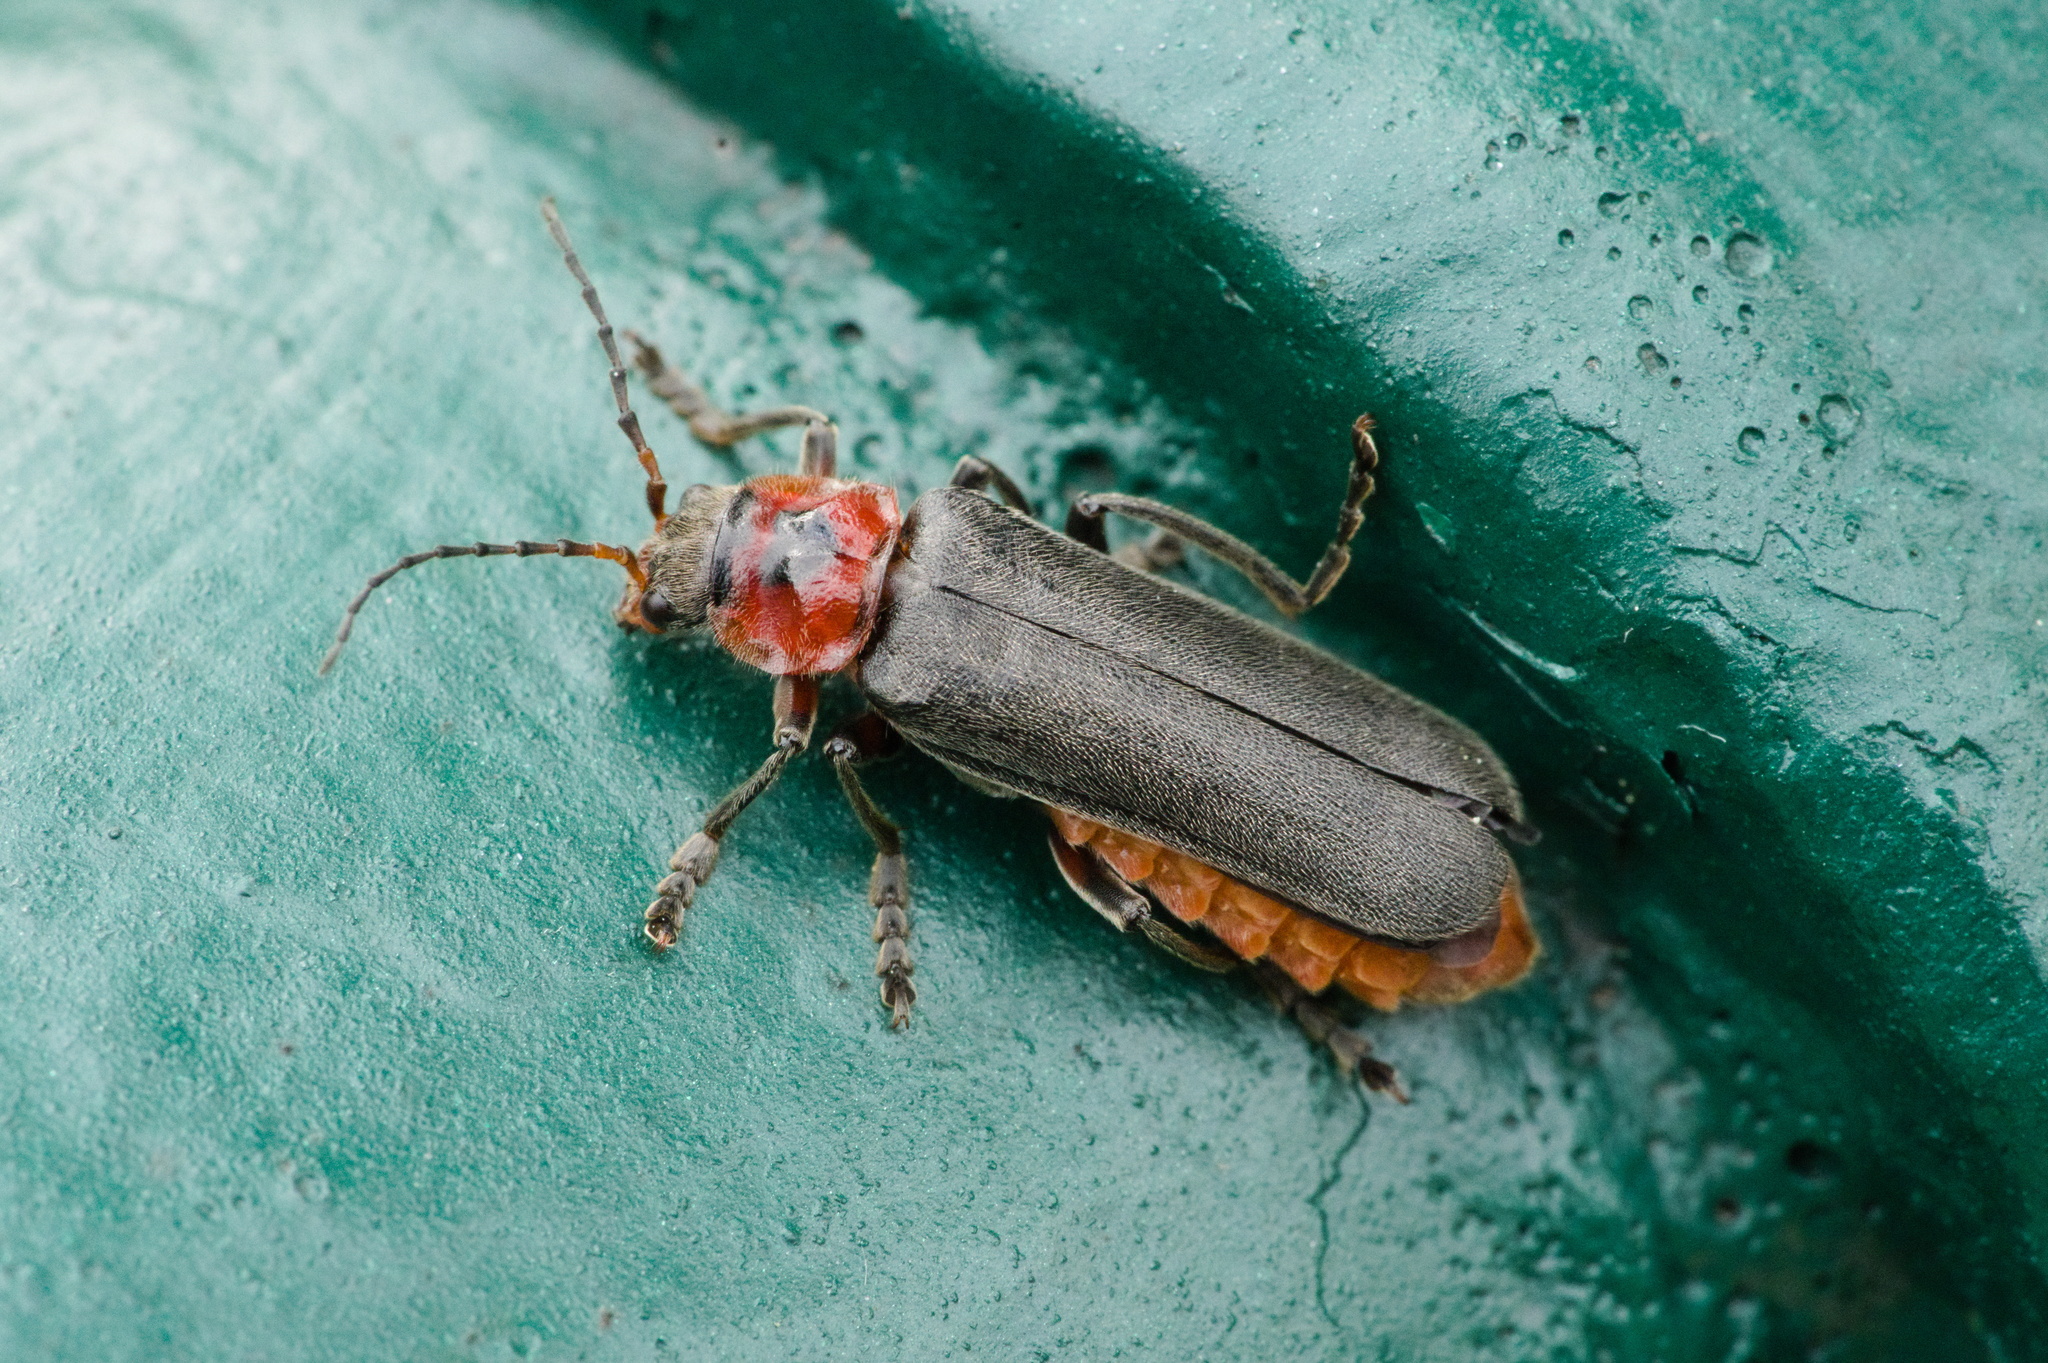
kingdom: Animalia
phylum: Arthropoda
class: Insecta
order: Coleoptera
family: Cantharidae
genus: Cantharis
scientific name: Cantharis rustica
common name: Soldier beetle
